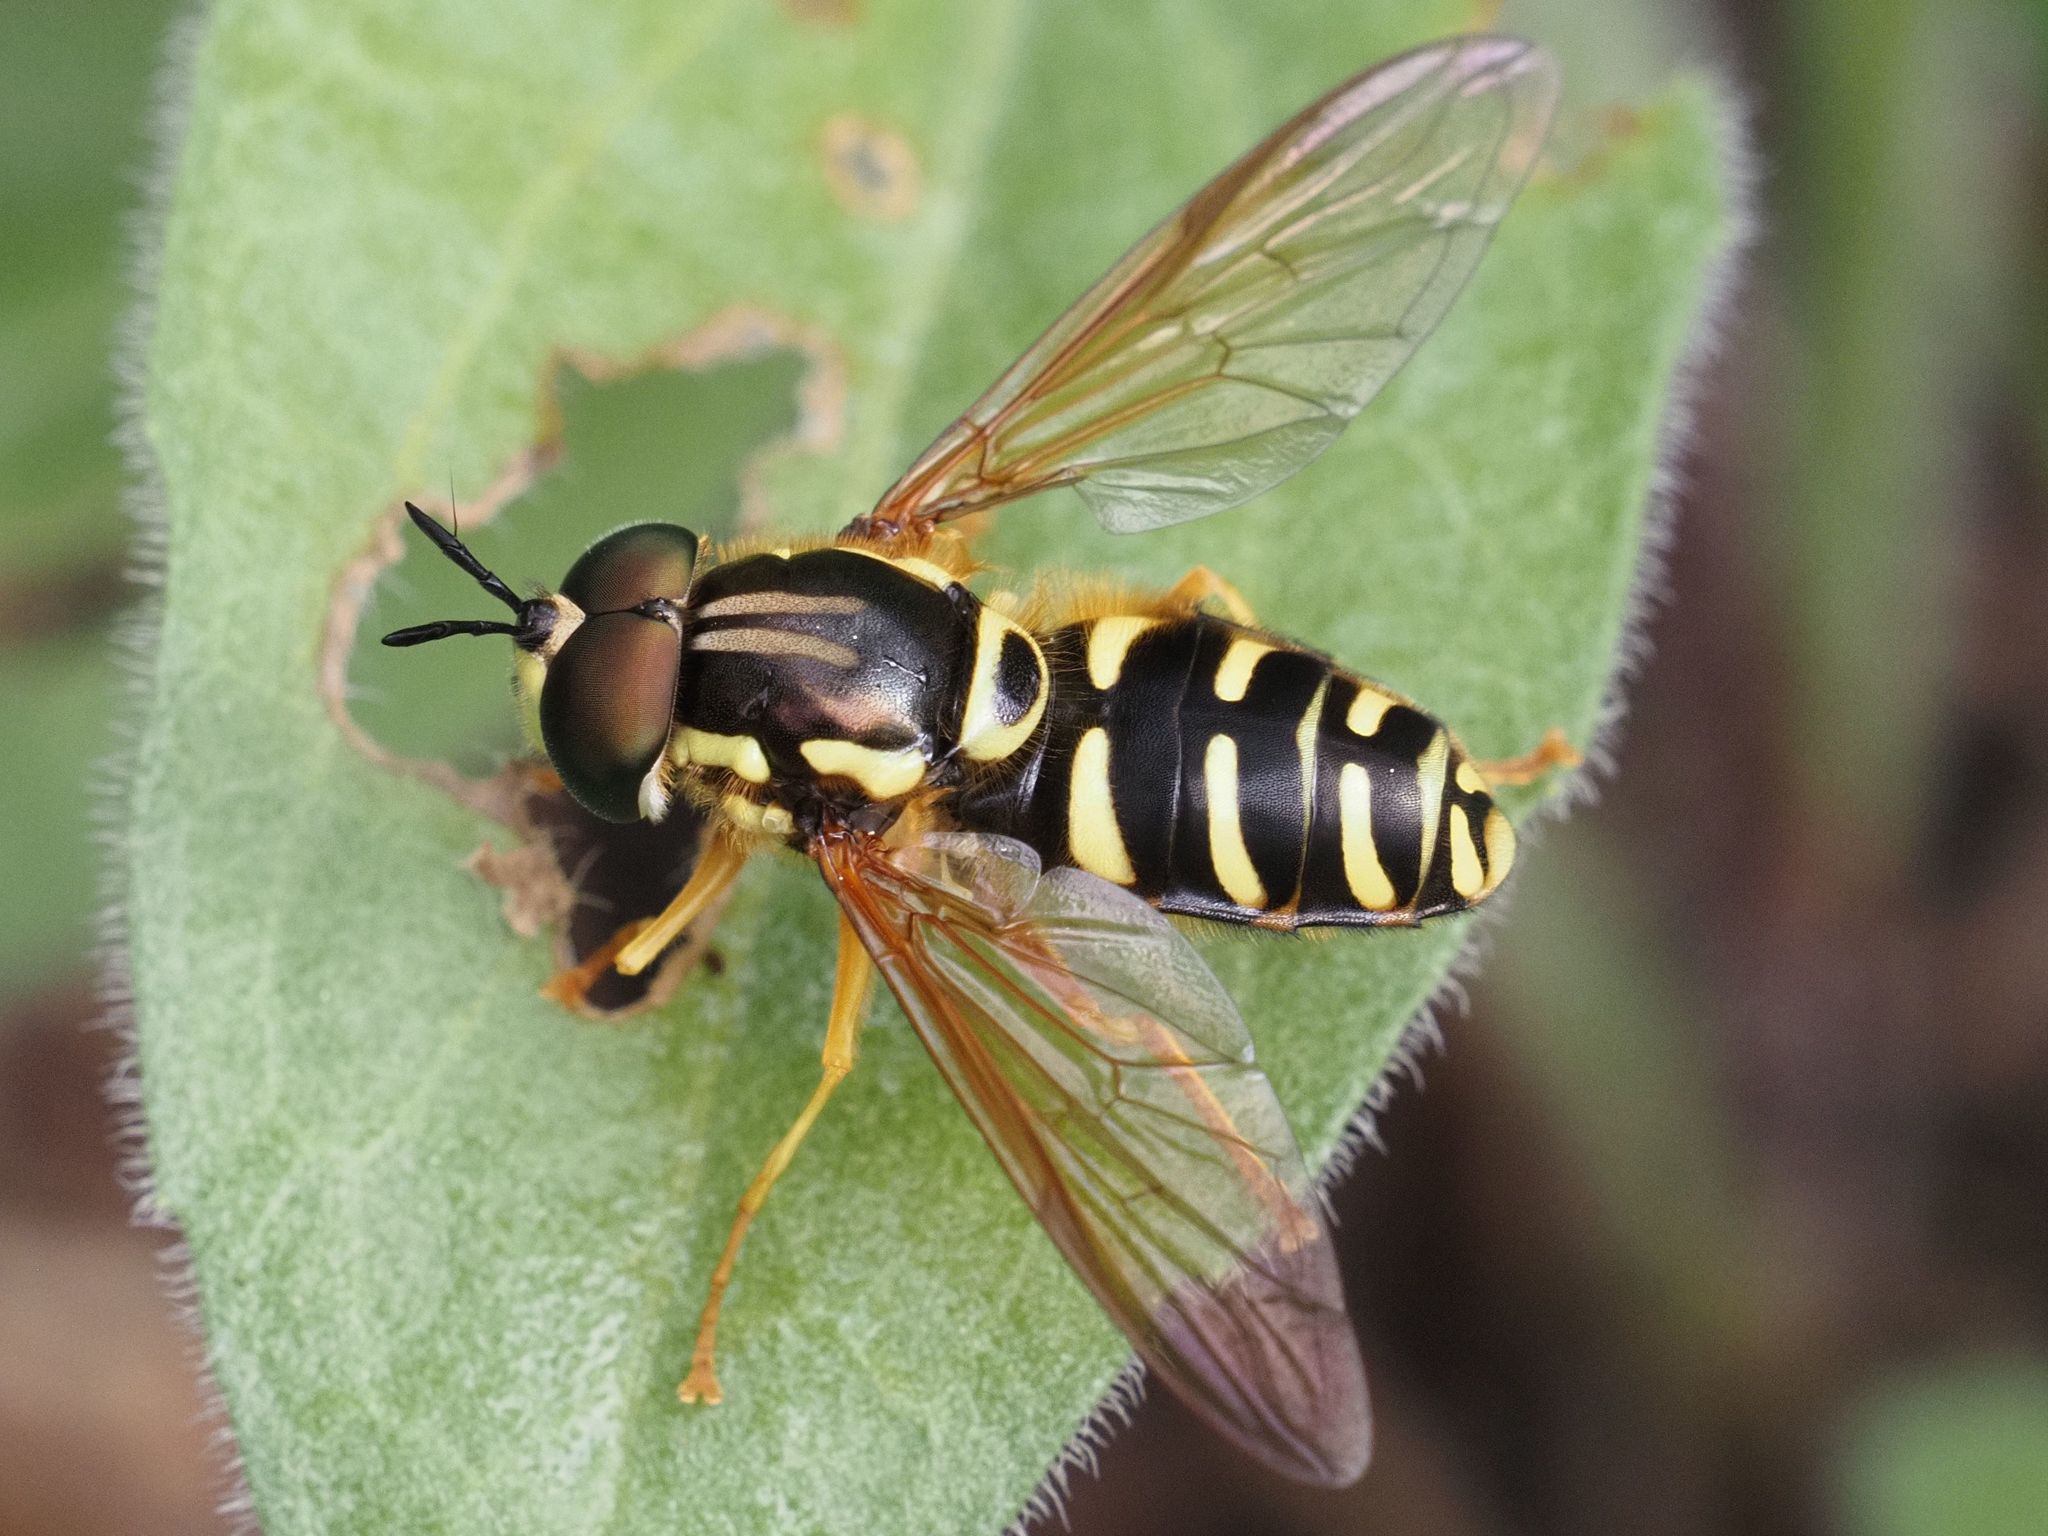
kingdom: Animalia
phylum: Arthropoda
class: Insecta
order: Diptera
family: Syrphidae
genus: Chrysotoxum
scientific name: Chrysotoxum elegans
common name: Zipperback
